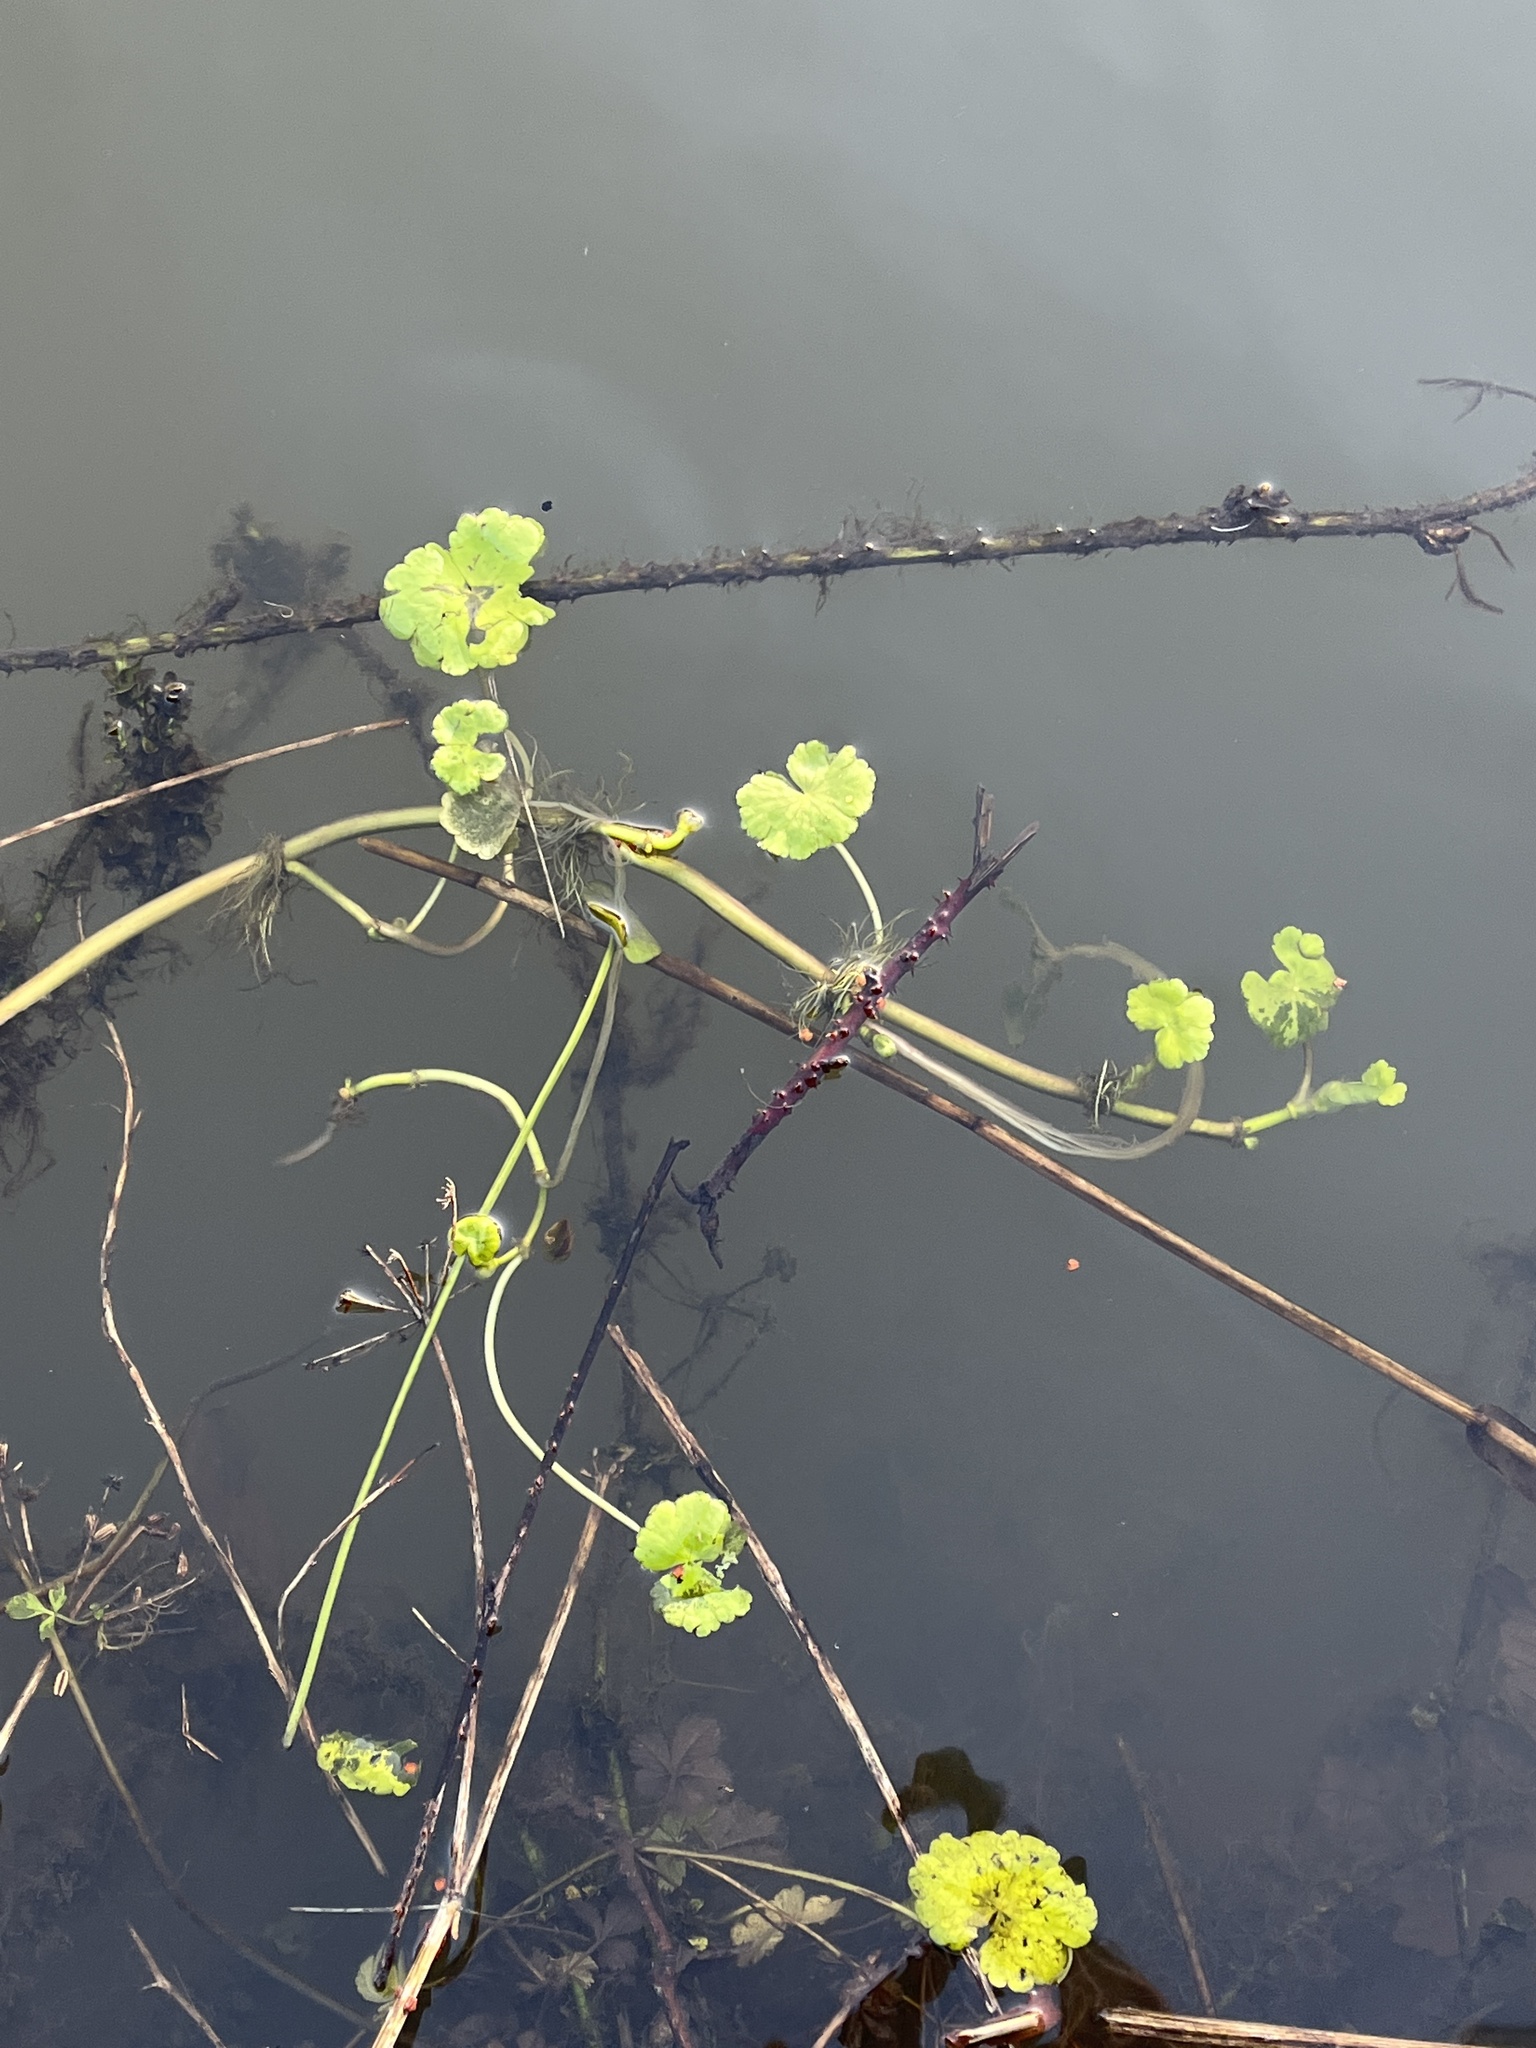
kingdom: Plantae
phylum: Tracheophyta
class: Magnoliopsida
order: Apiales
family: Araliaceae
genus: Hydrocotyle
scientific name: Hydrocotyle ranunculoides
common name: Floating pennywort
